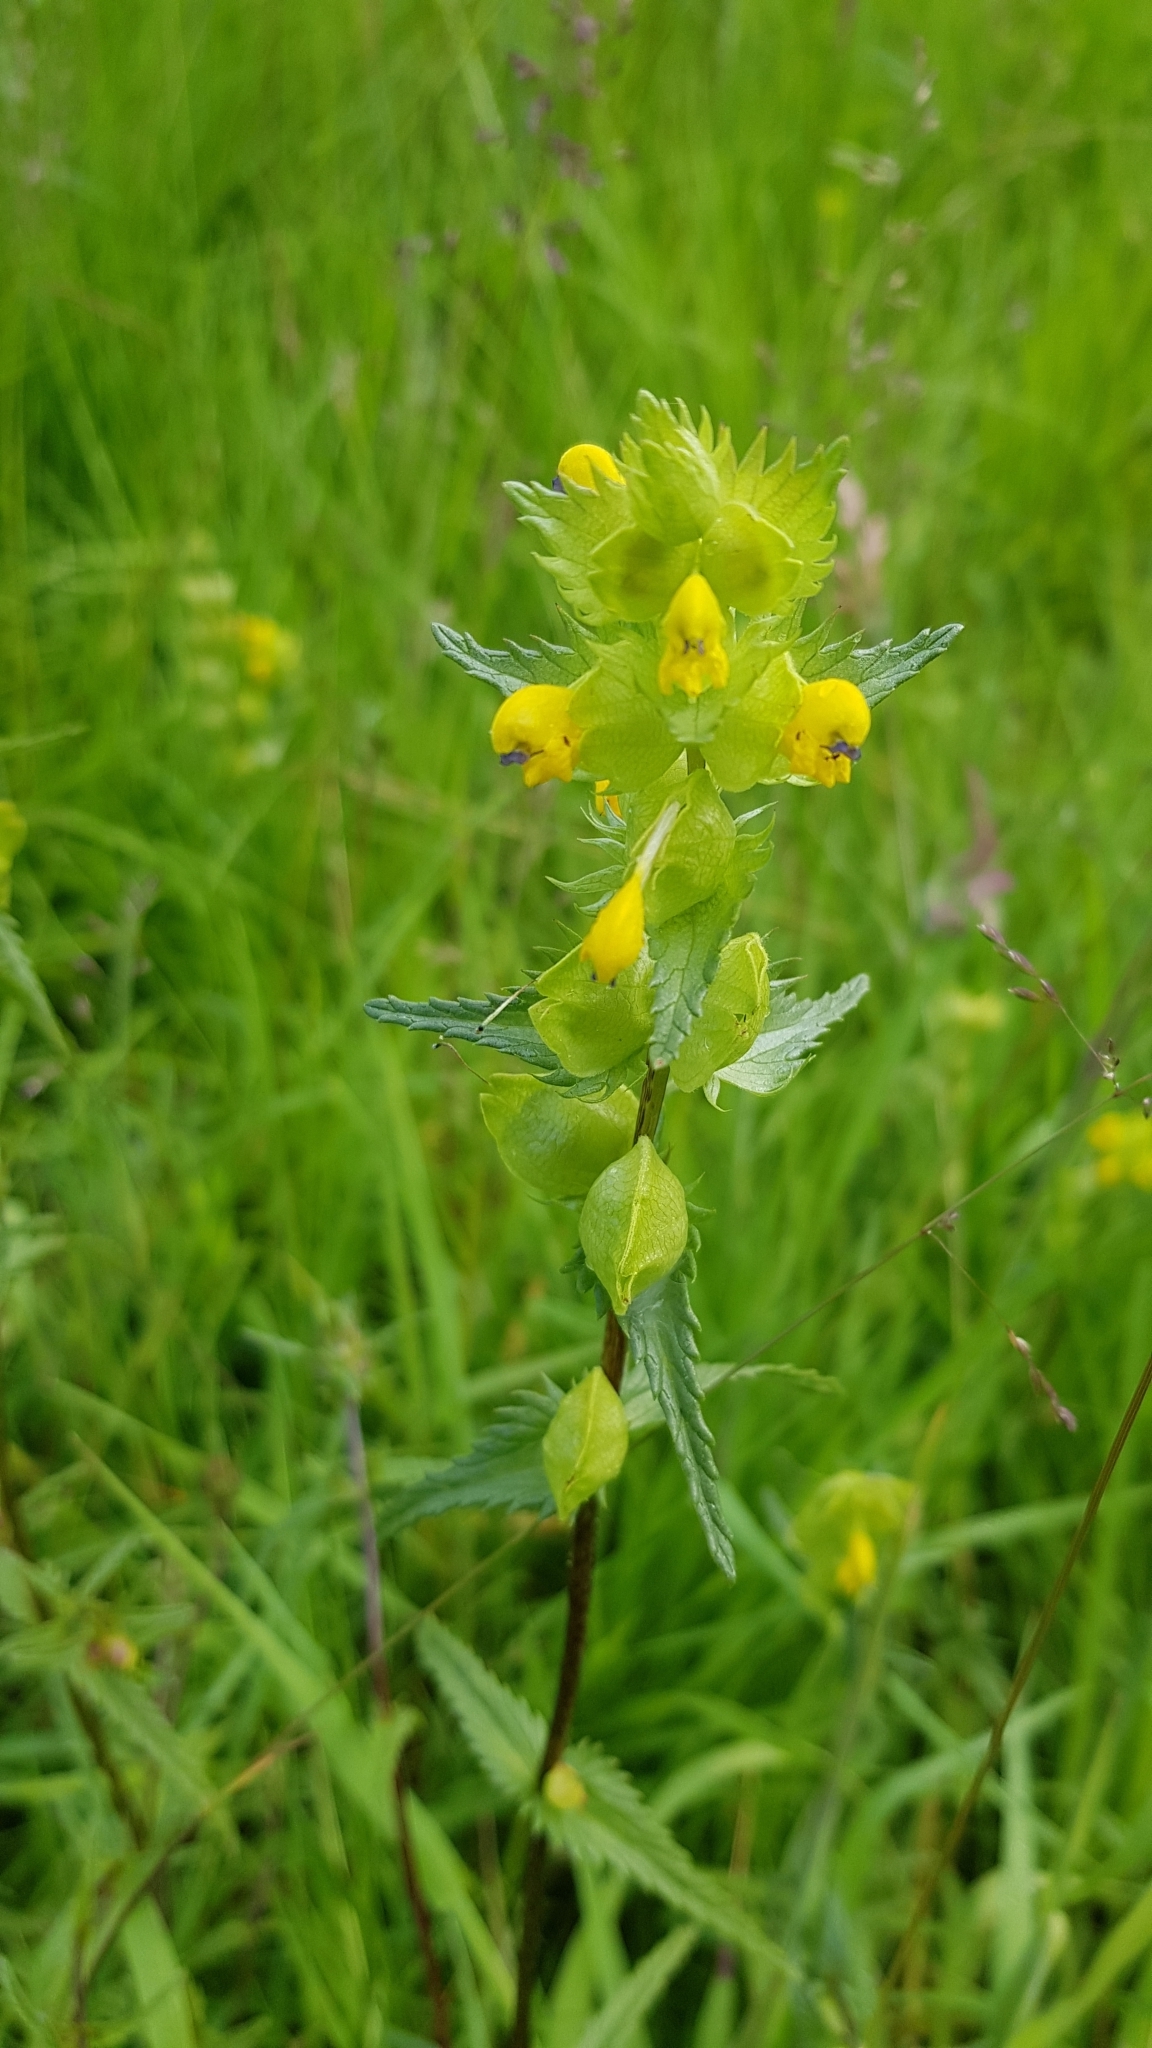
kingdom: Plantae
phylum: Tracheophyta
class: Magnoliopsida
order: Lamiales
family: Orobanchaceae
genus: Rhinanthus
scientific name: Rhinanthus minor
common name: Yellow-rattle
